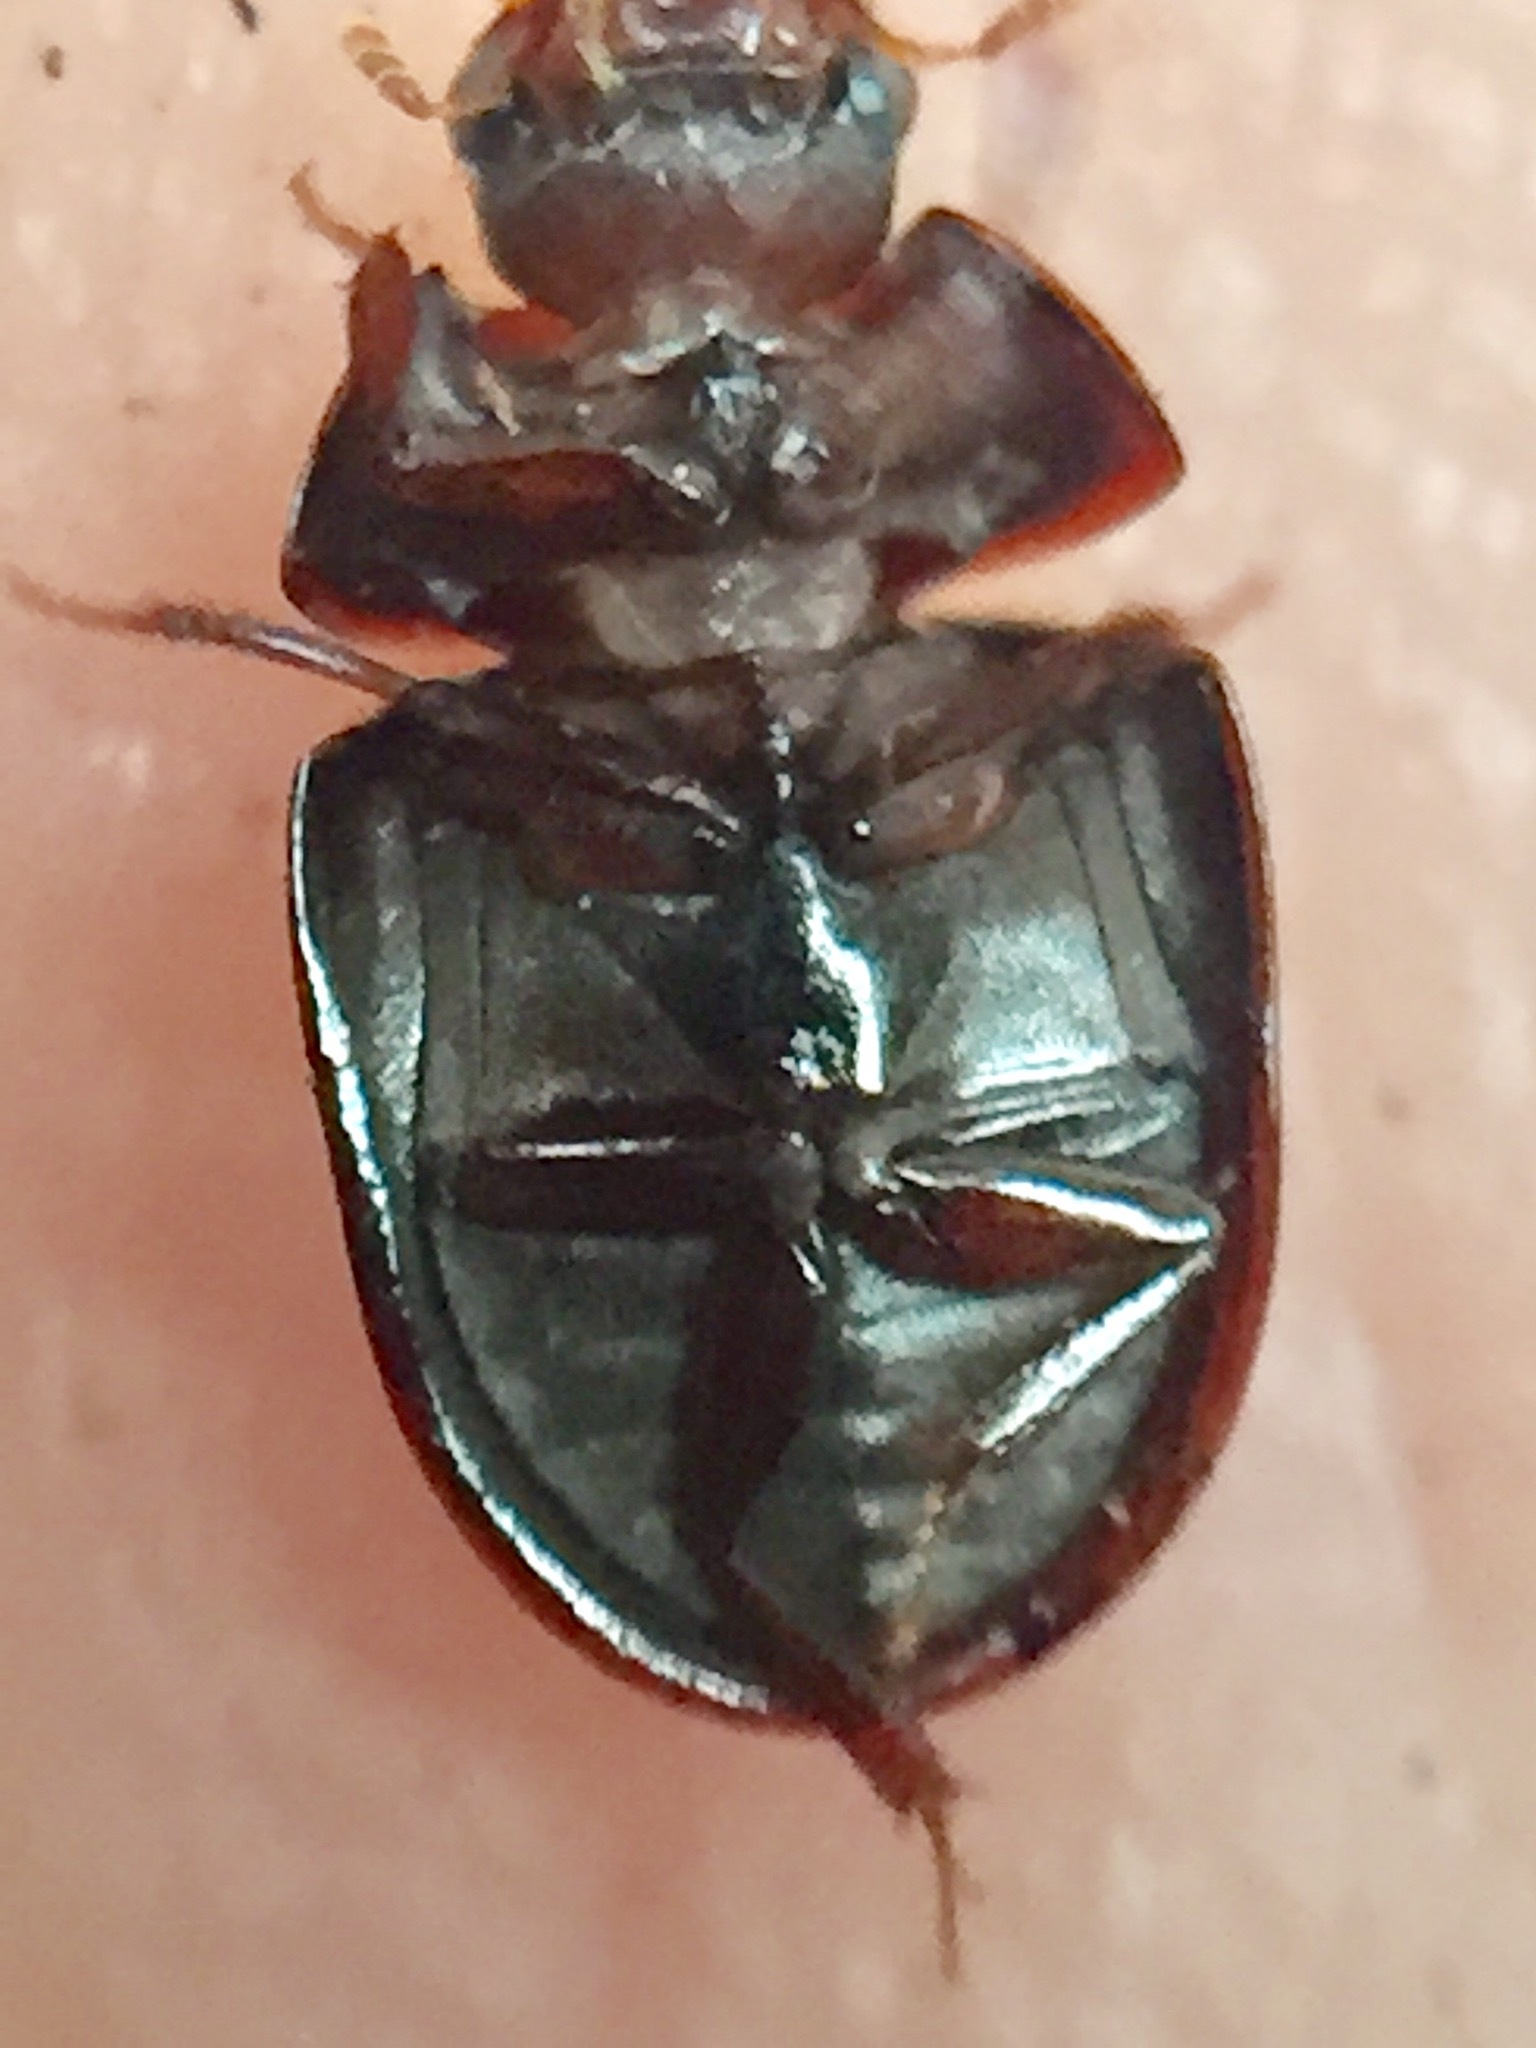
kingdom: Animalia
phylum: Arthropoda
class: Insecta
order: Coleoptera
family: Hydrophilidae
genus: Dactylosternum
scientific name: Dactylosternum marginale
